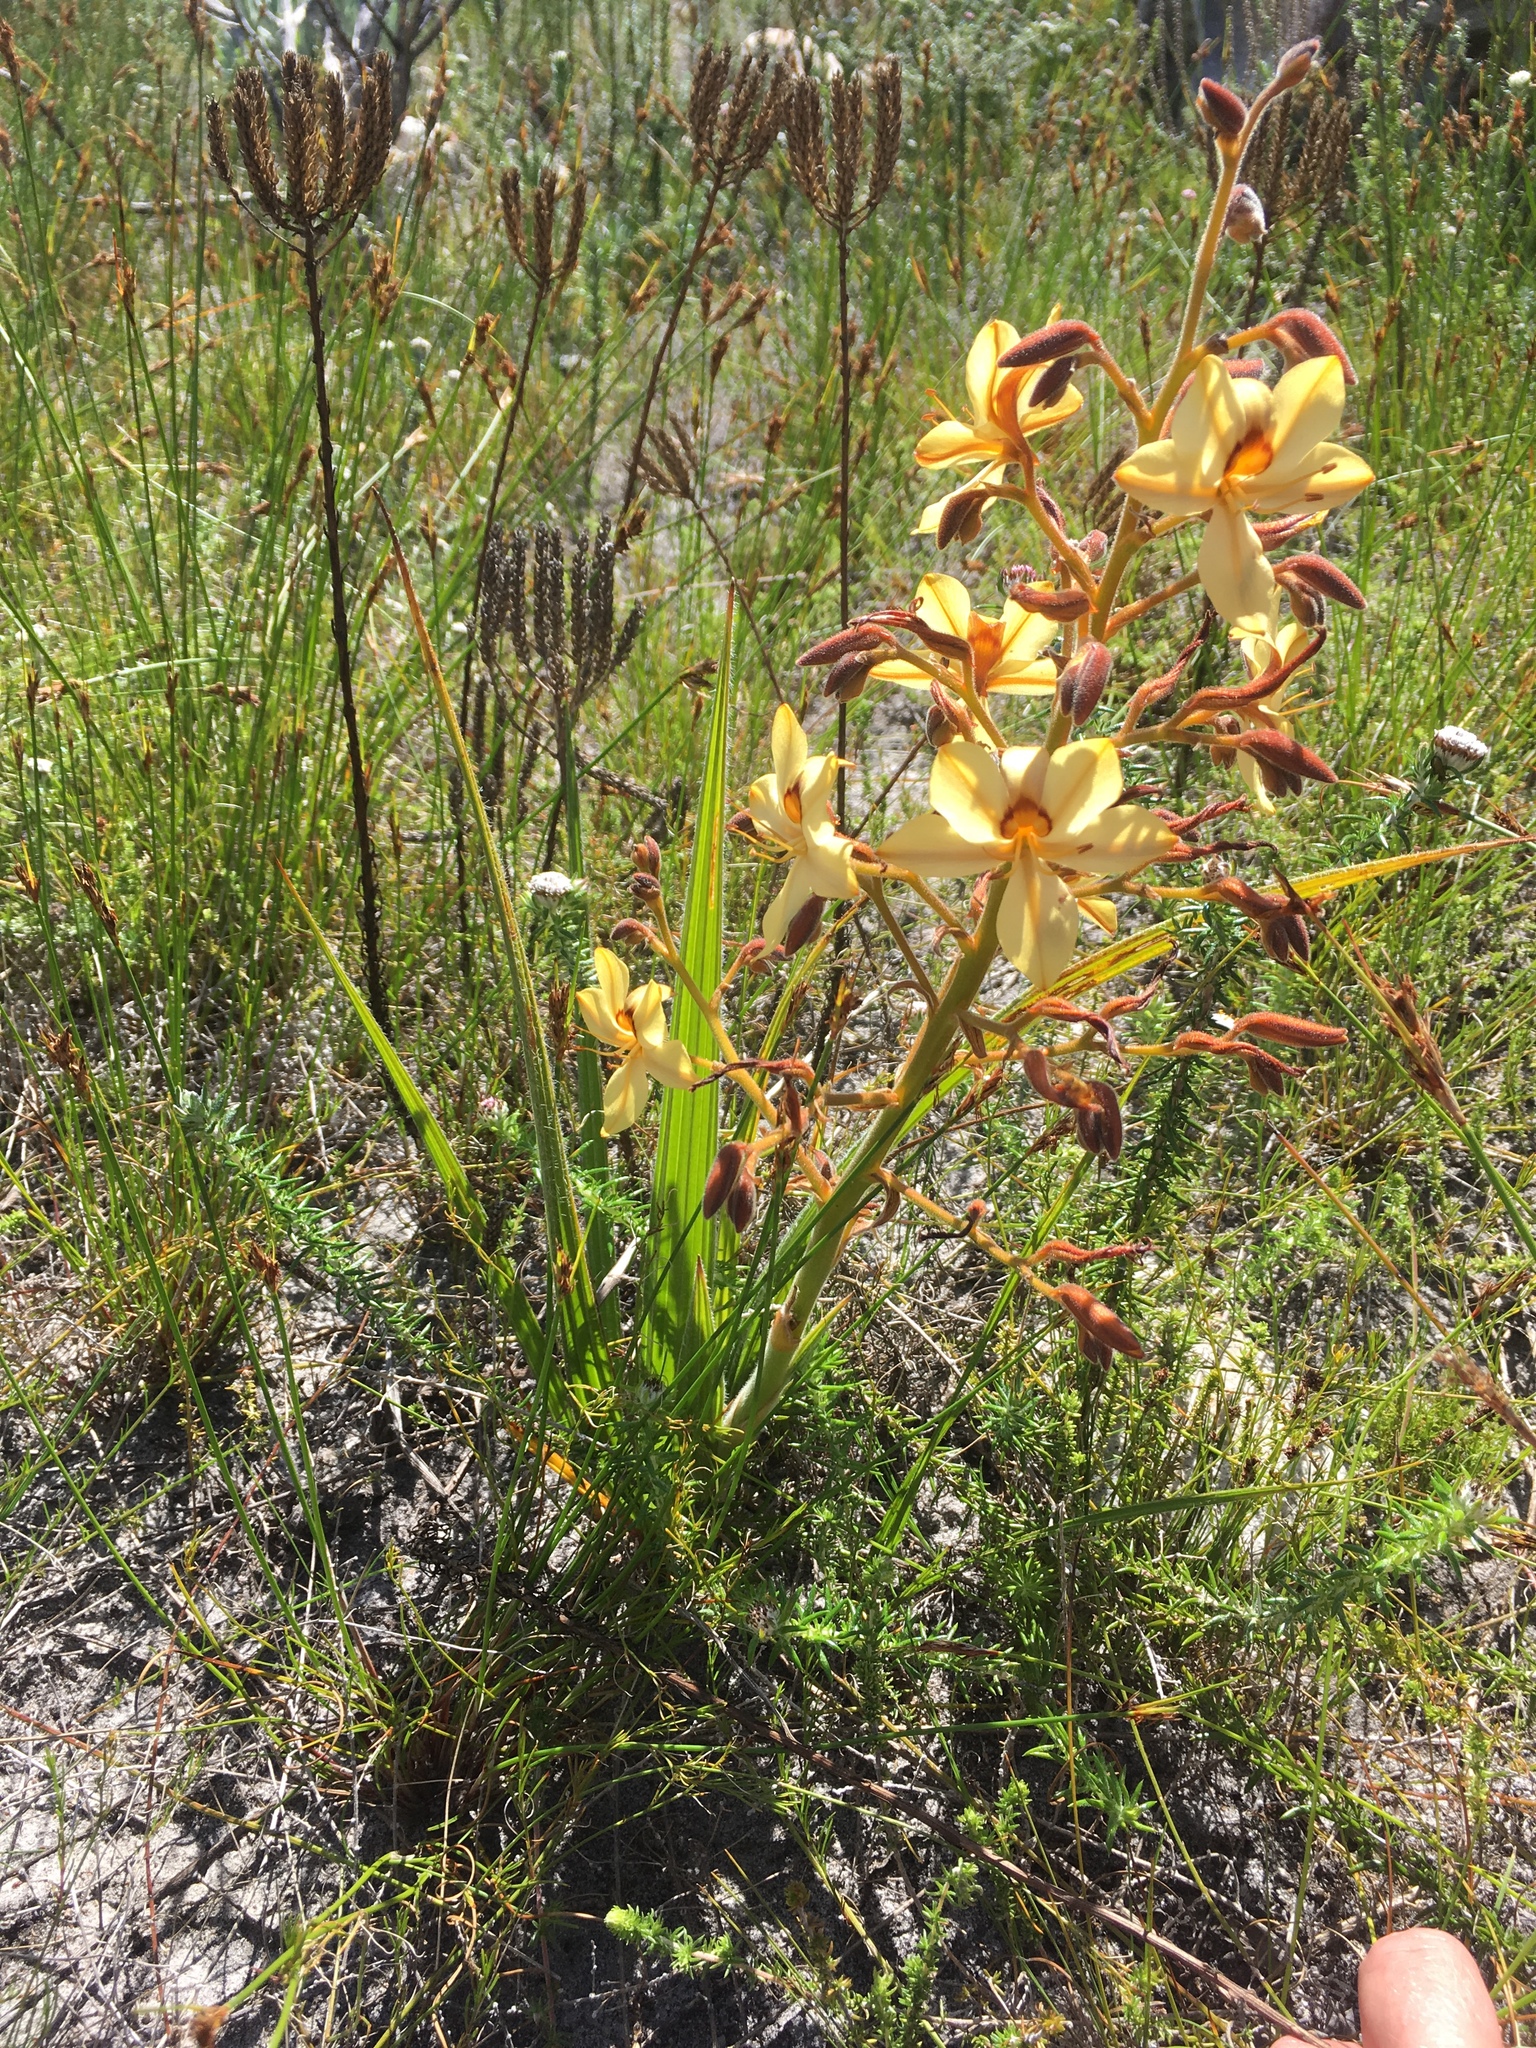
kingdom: Plantae
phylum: Tracheophyta
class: Liliopsida
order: Commelinales
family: Haemodoraceae
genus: Wachendorfia
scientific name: Wachendorfia paniculata
